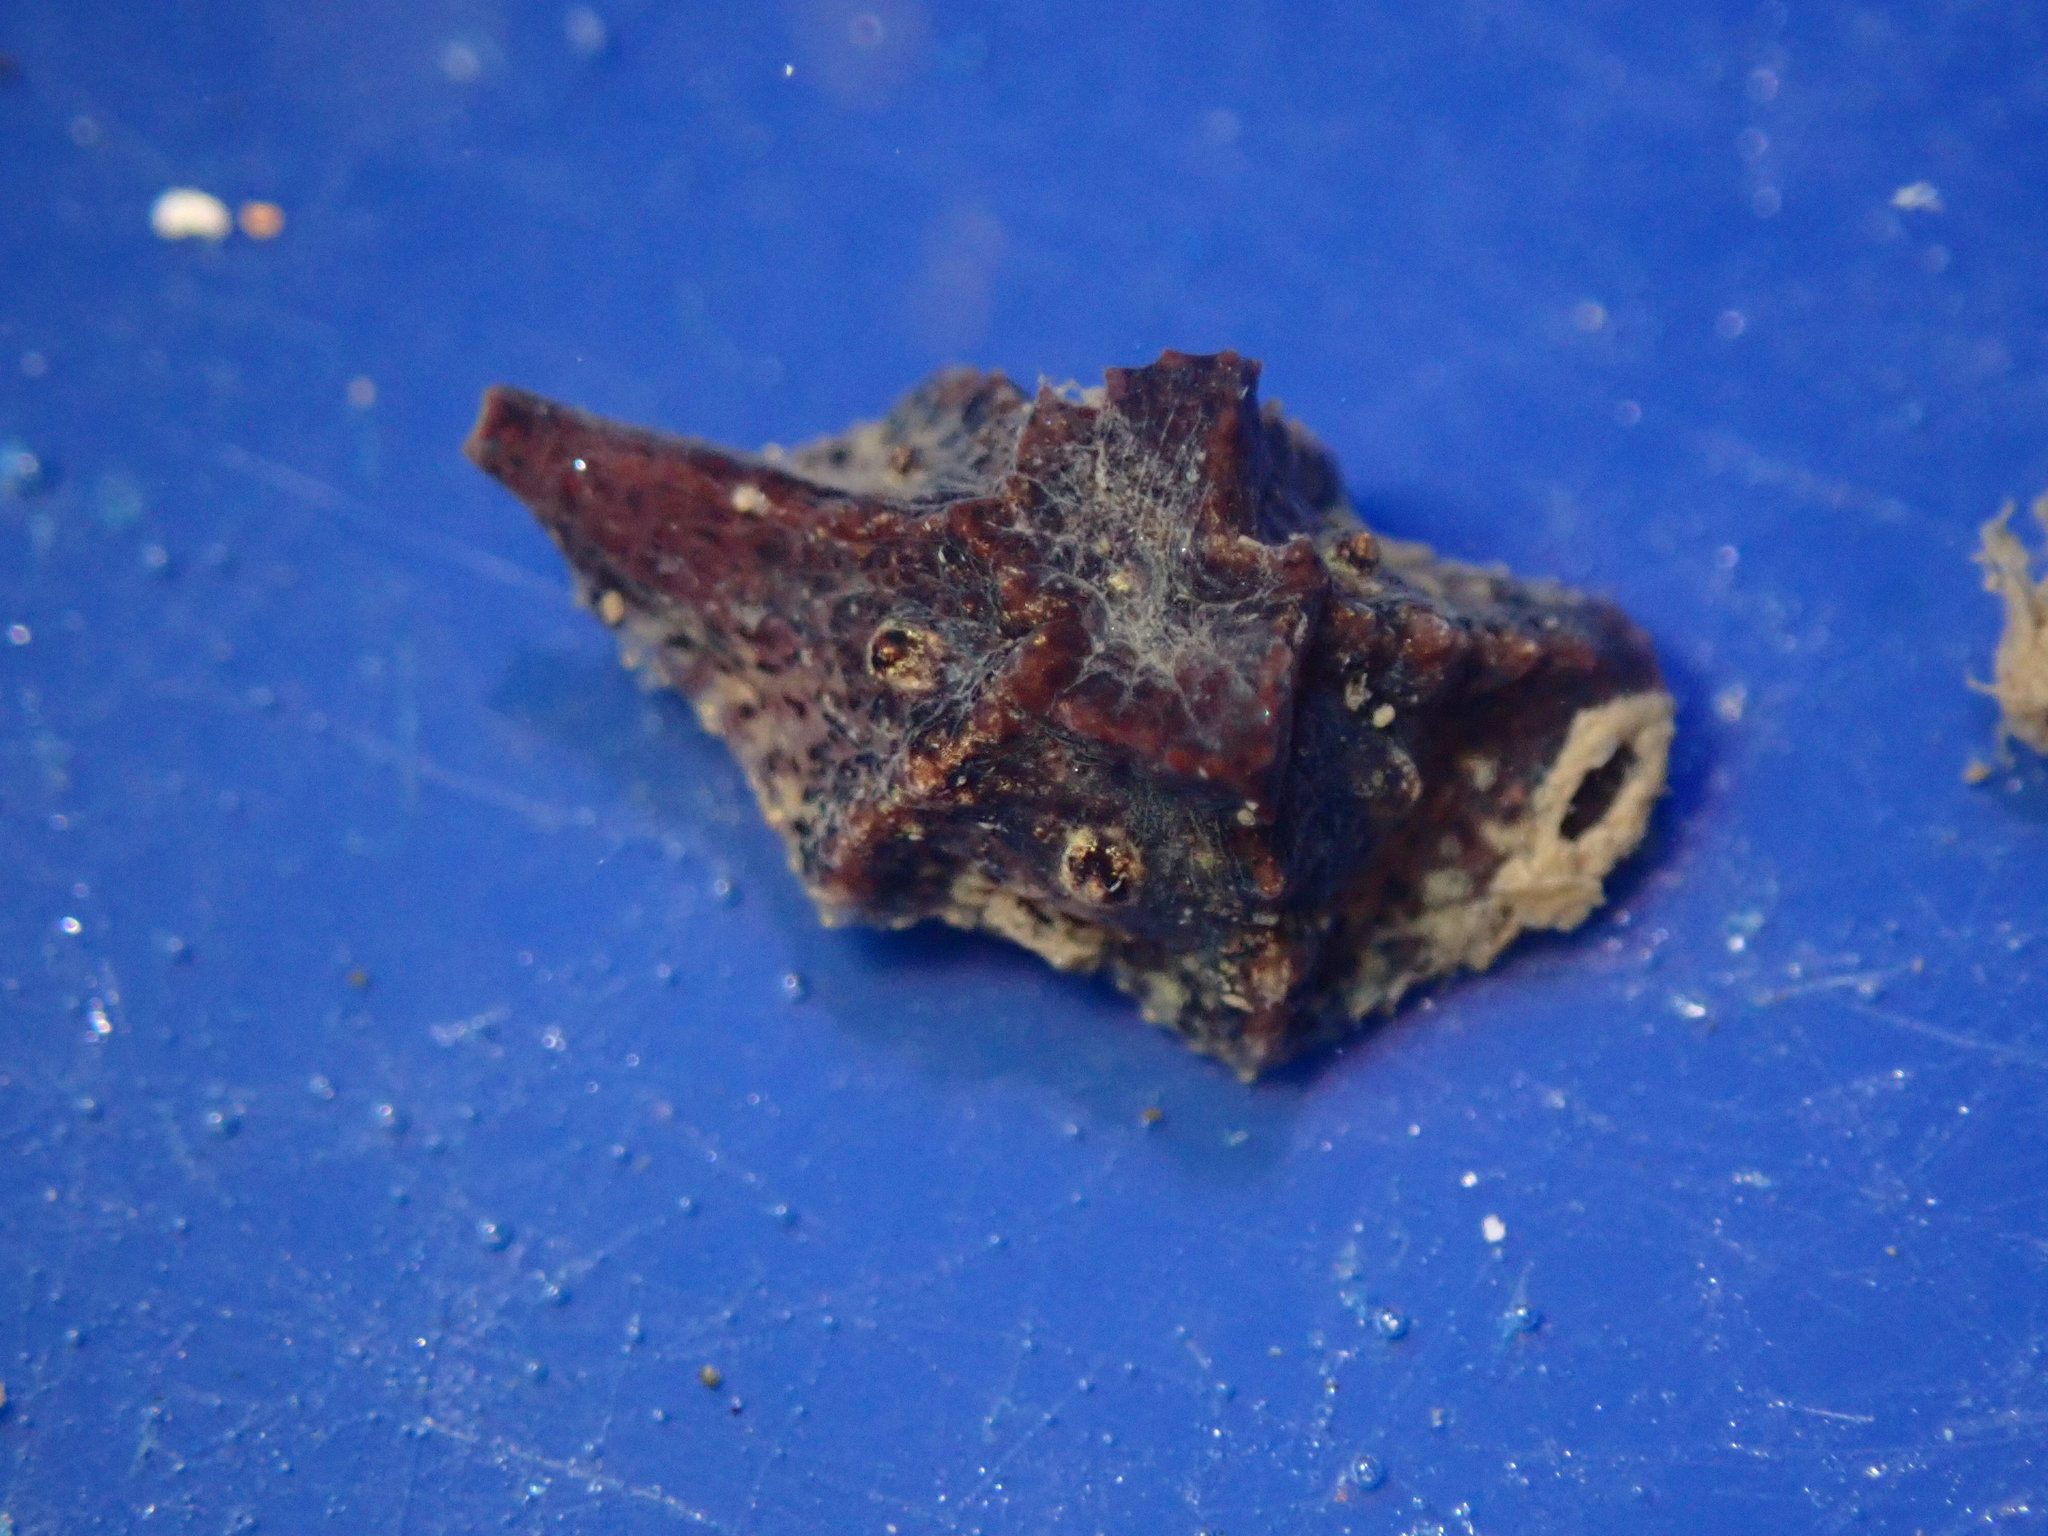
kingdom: Animalia
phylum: Mollusca
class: Gastropoda
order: Littorinimorpha
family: Velutinidae
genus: Hainotis
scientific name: Hainotis sharonae
